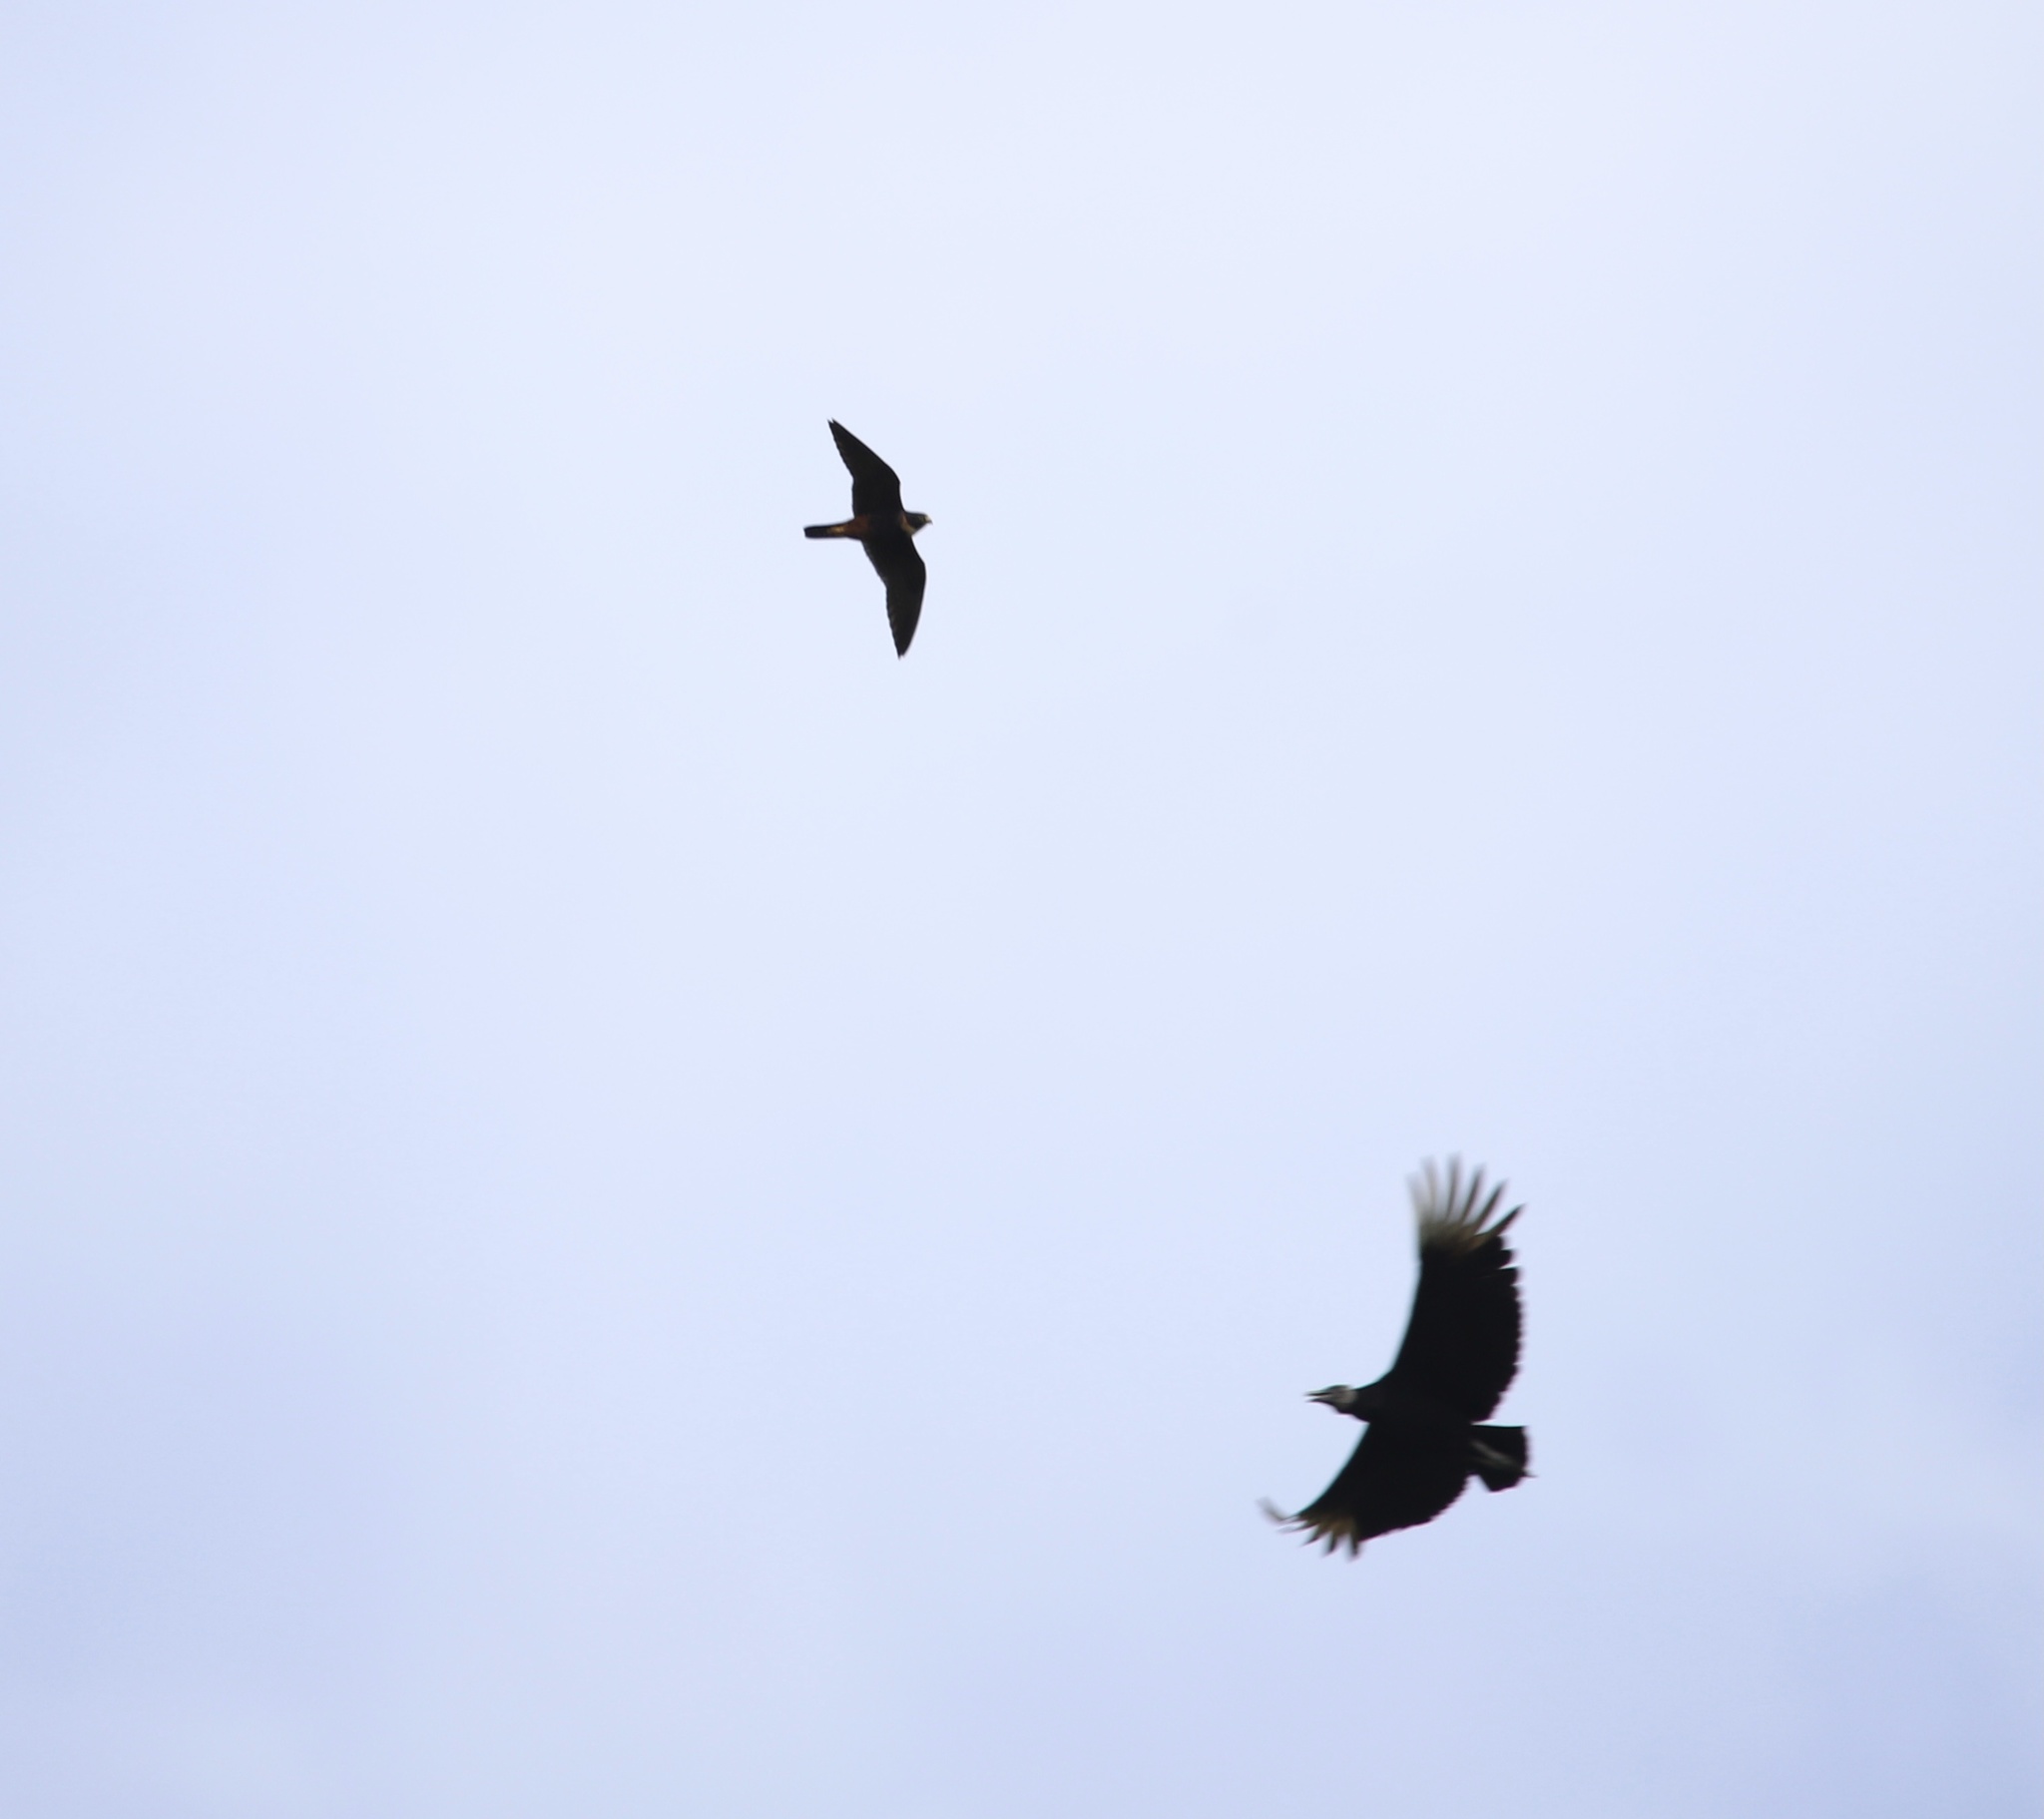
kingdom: Animalia
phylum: Chordata
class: Aves
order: Falconiformes
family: Falconidae
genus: Falco
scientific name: Falco rufigularis
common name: Bat falcon
